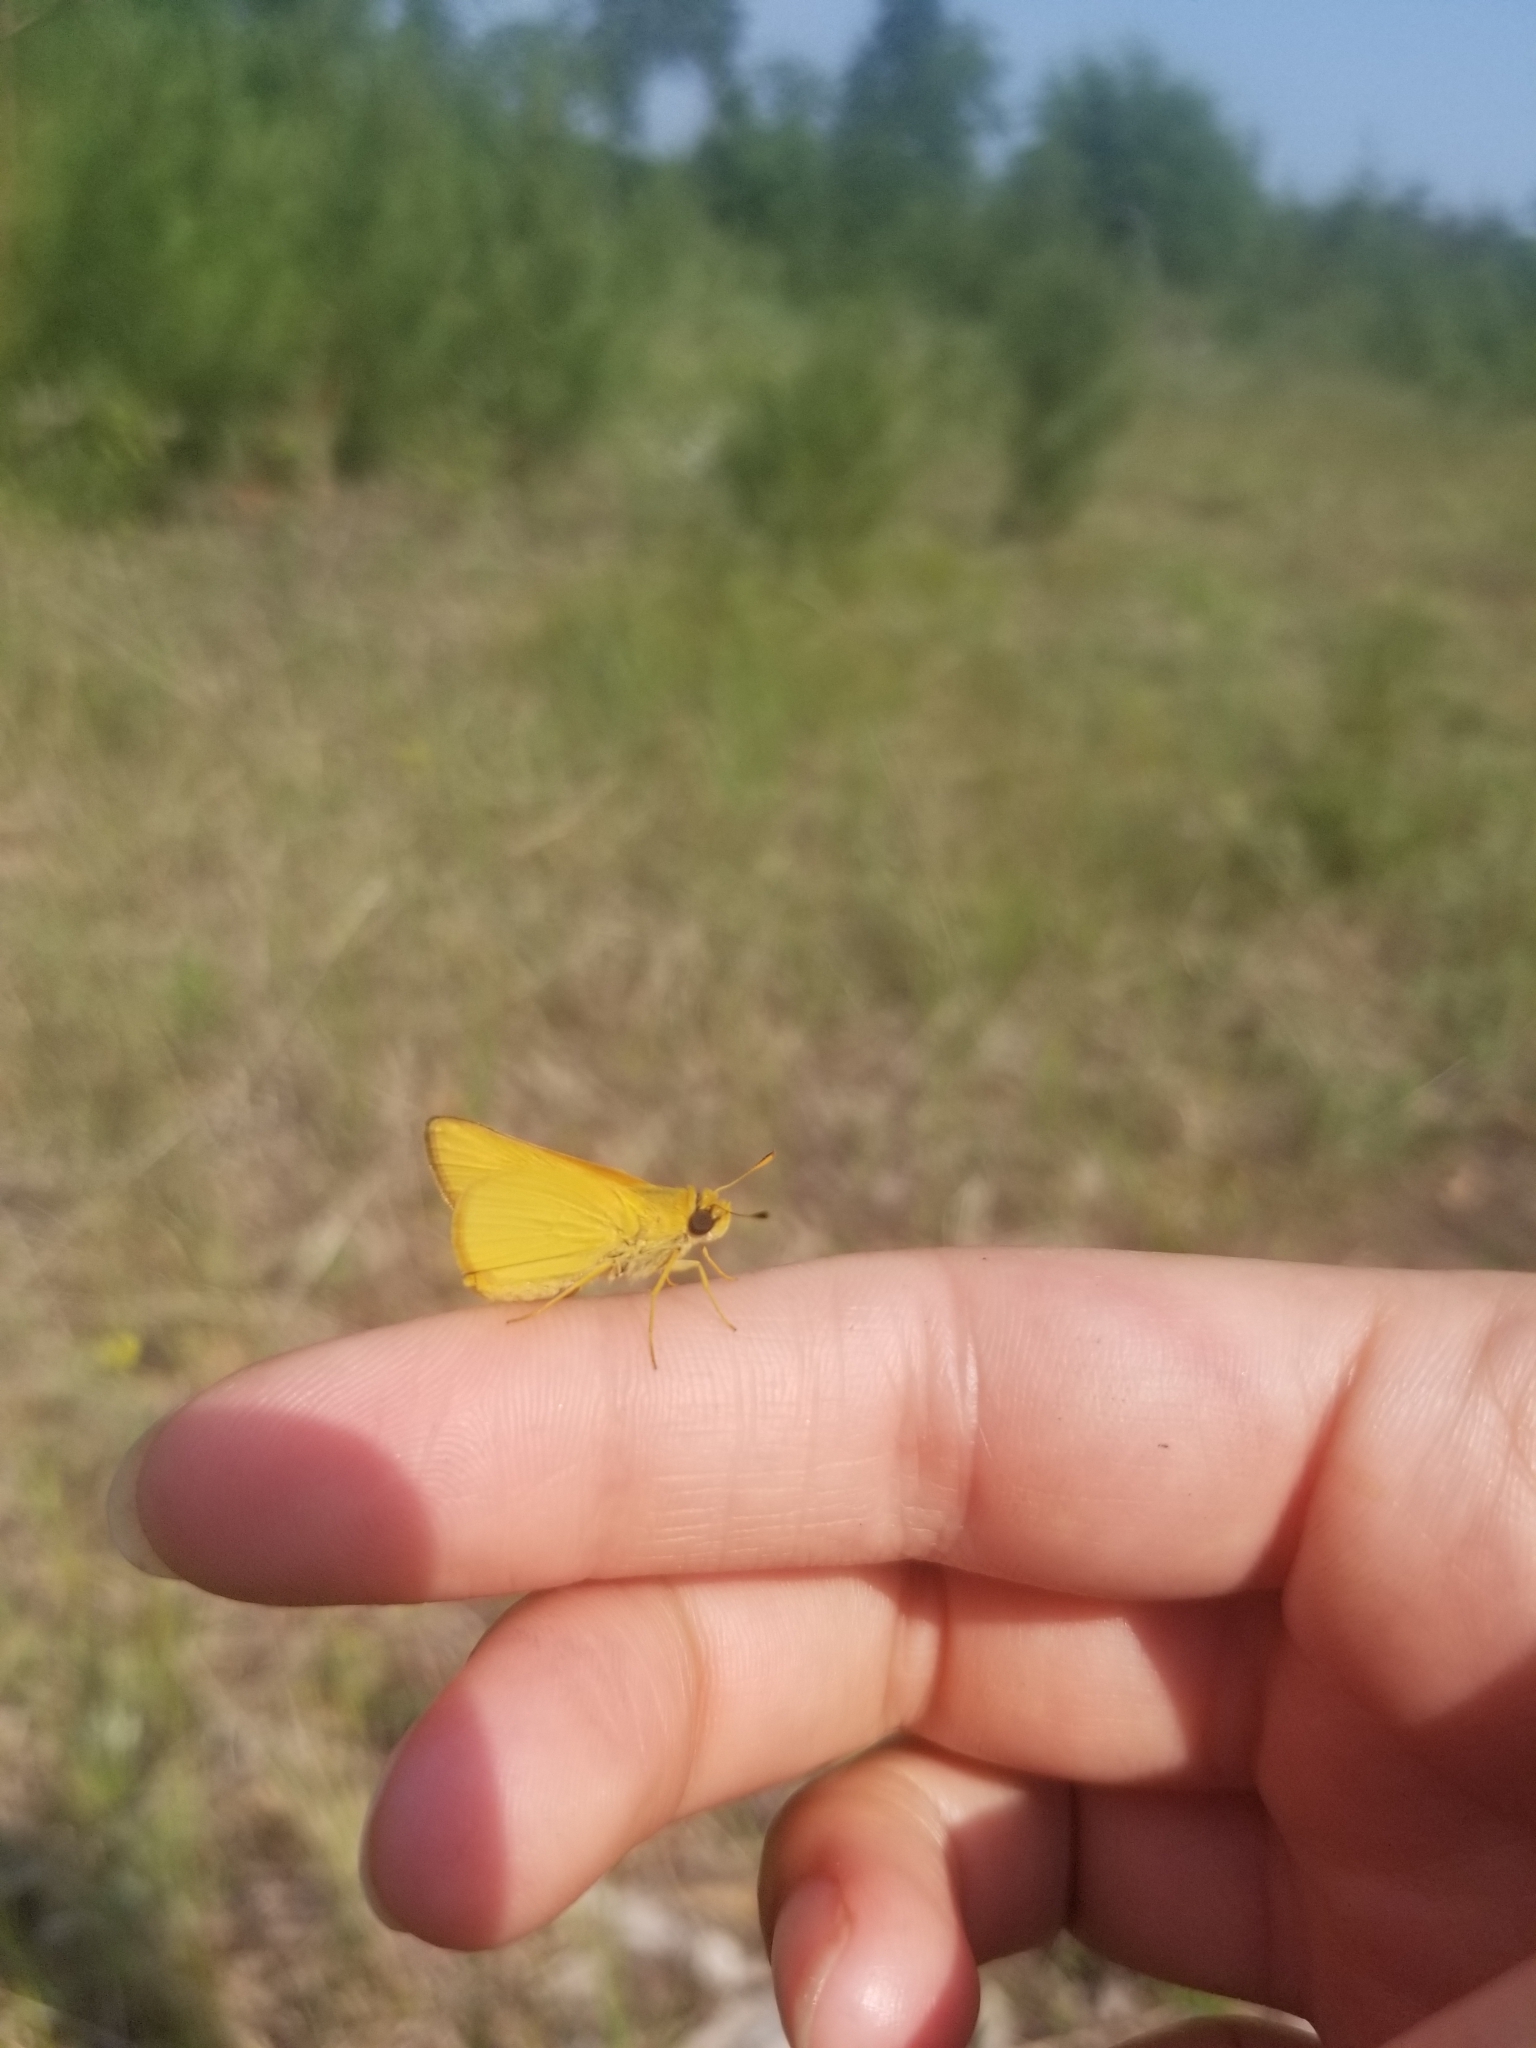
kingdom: Animalia
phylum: Arthropoda
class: Insecta
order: Lepidoptera
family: Hesperiidae
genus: Atrytone
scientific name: Atrytone delaware
